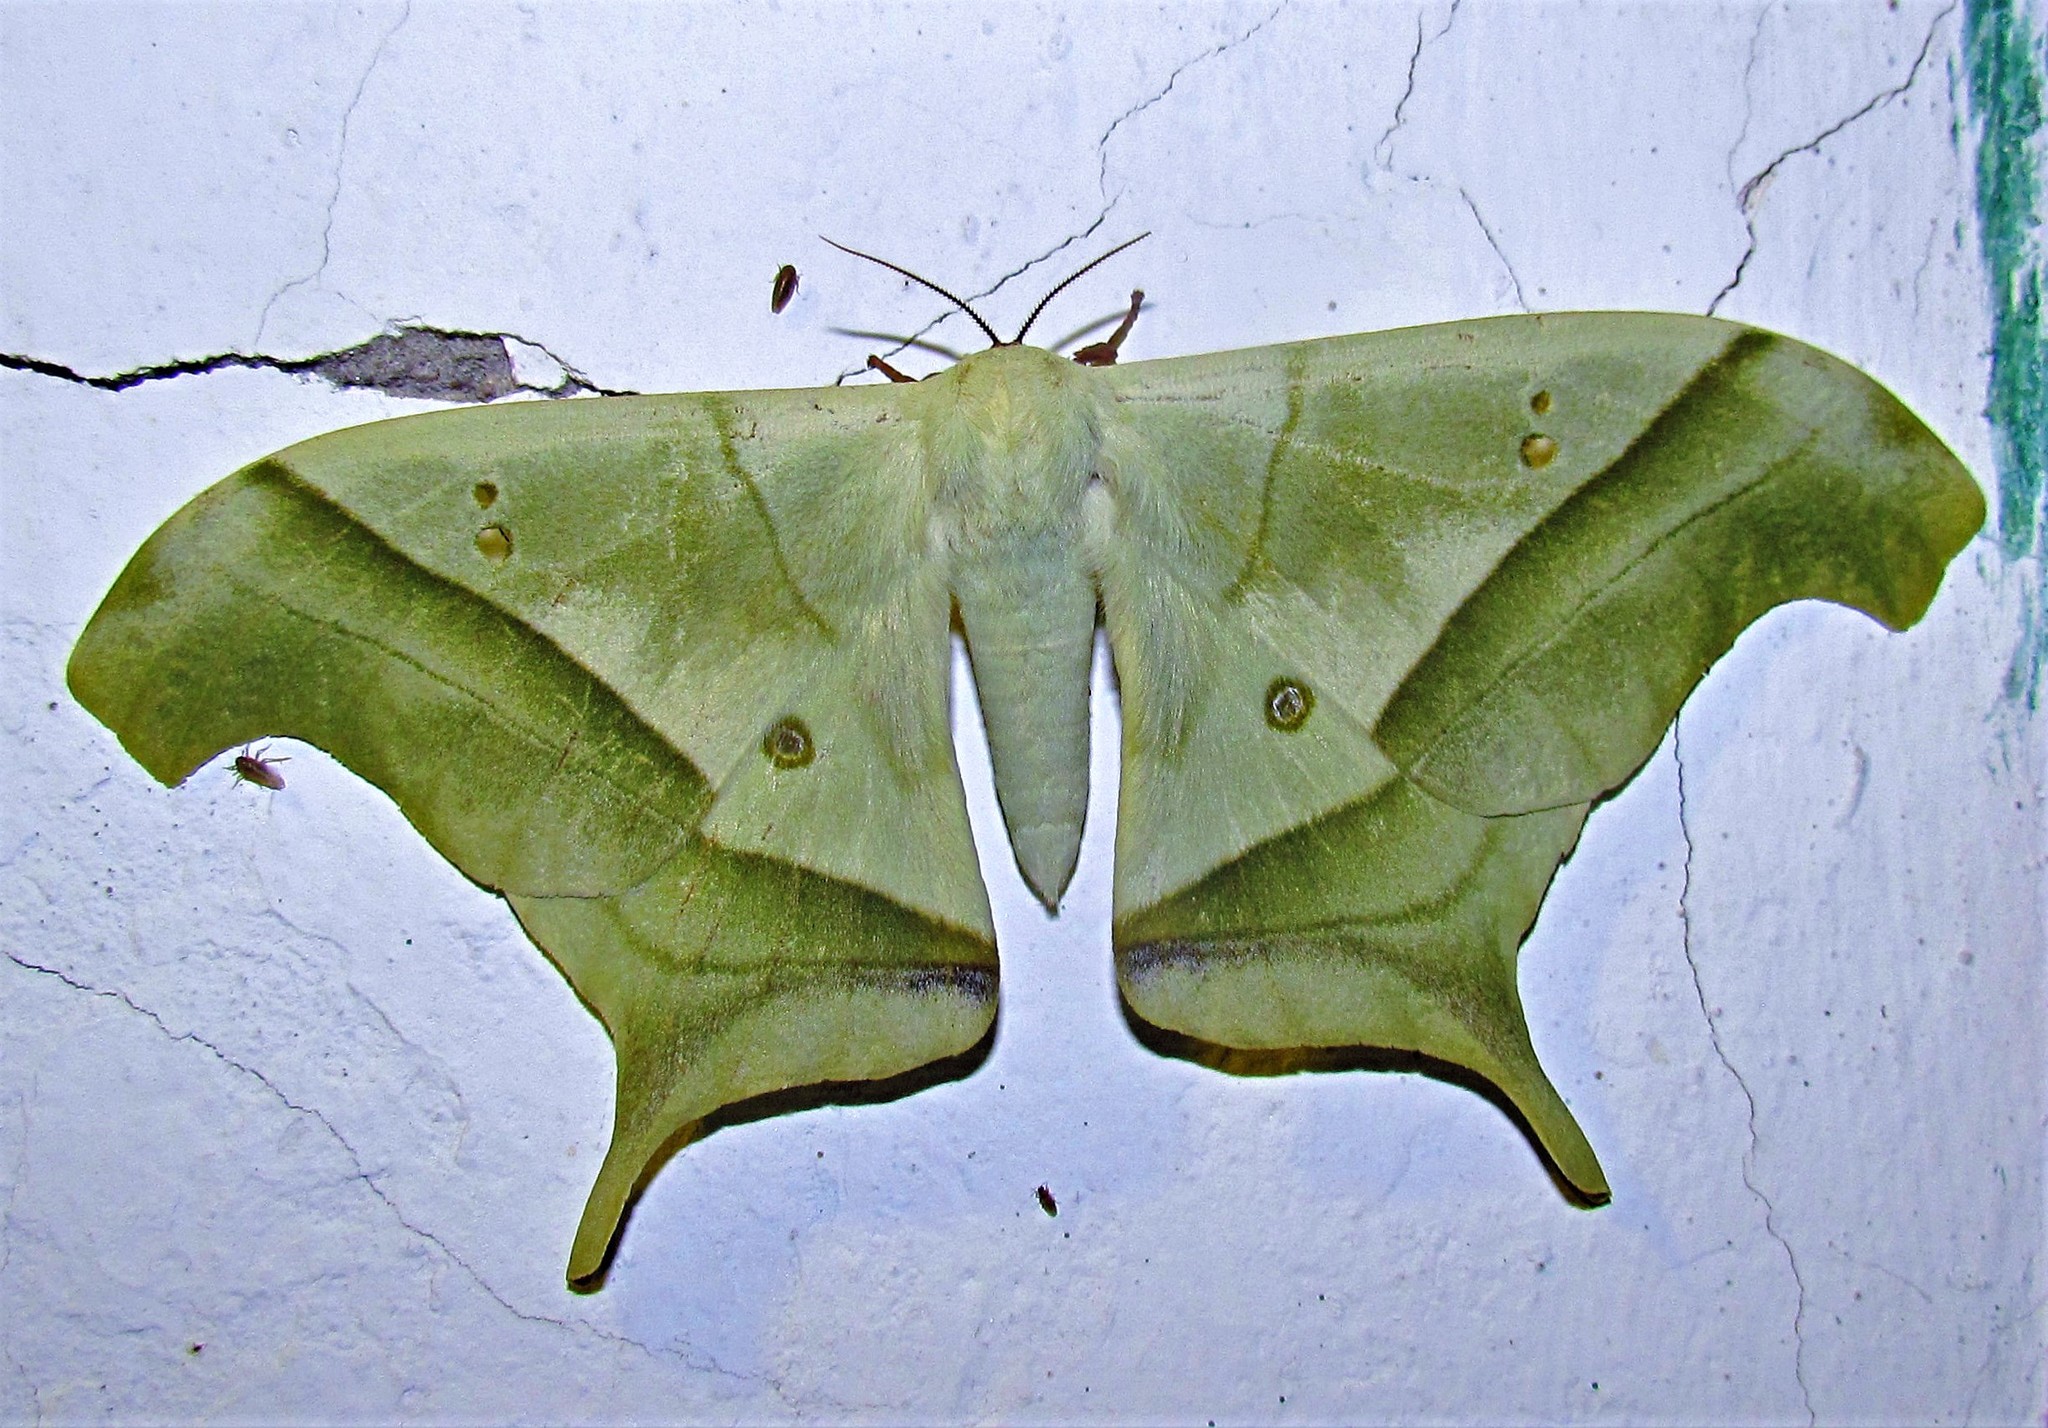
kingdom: Animalia
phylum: Arthropoda
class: Insecta
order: Lepidoptera
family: Saturniidae
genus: Dysdaemonia
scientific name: Dysdaemonia fosteri
